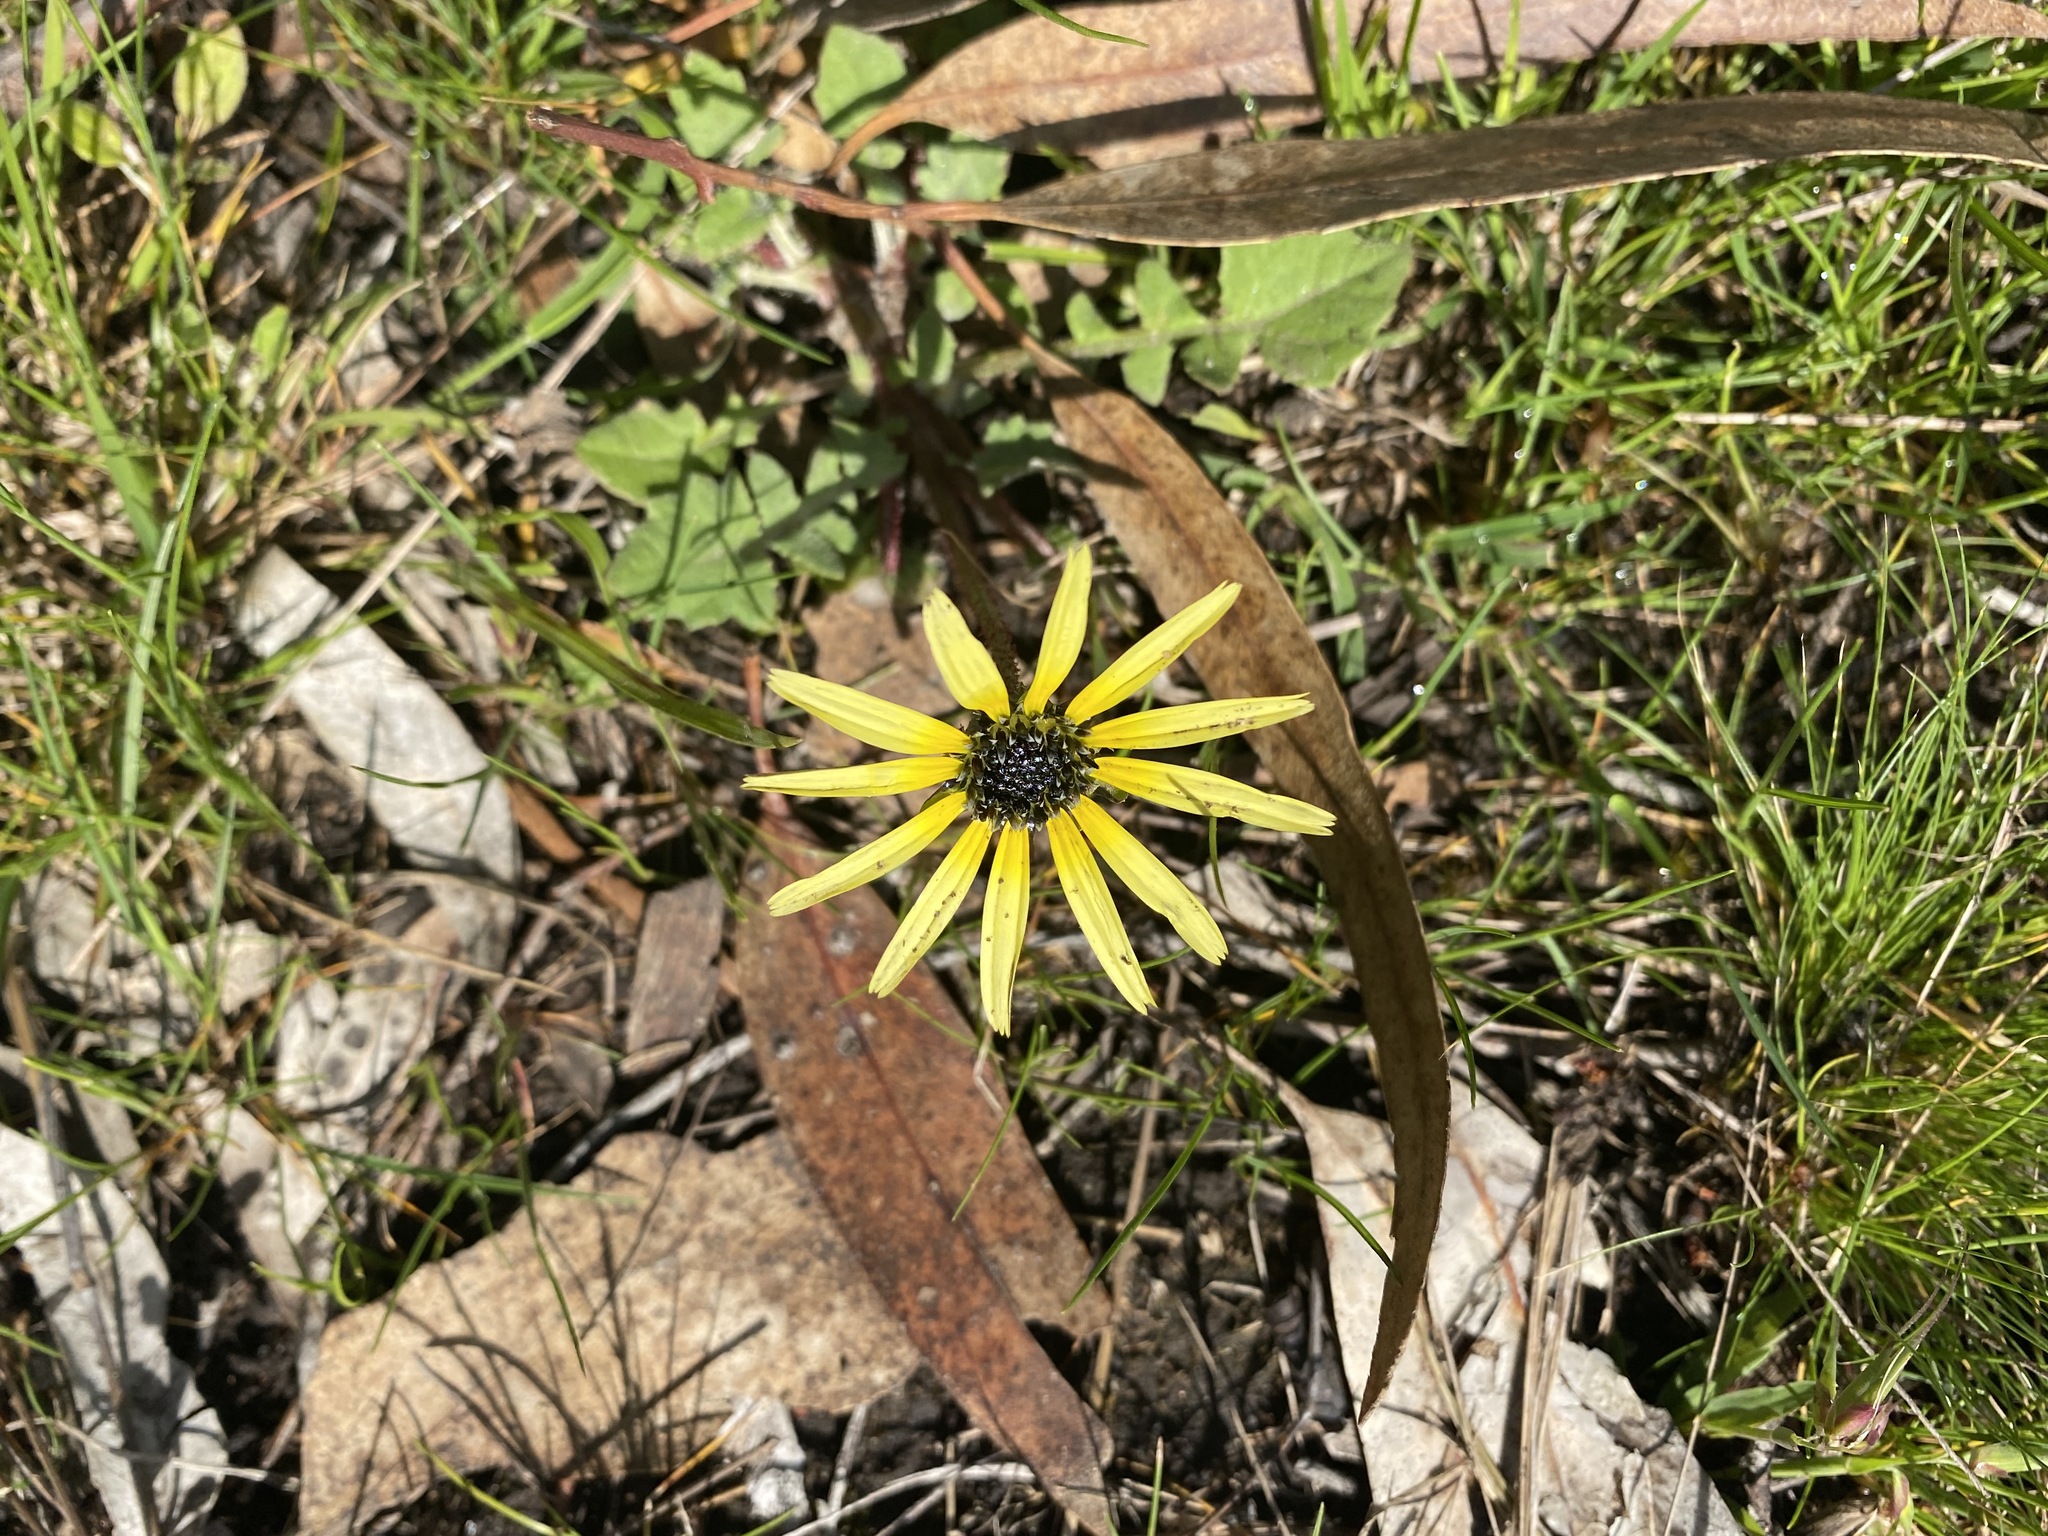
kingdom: Plantae
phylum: Tracheophyta
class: Magnoliopsida
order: Asterales
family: Asteraceae
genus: Arctotheca
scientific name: Arctotheca calendula
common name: Capeweed
